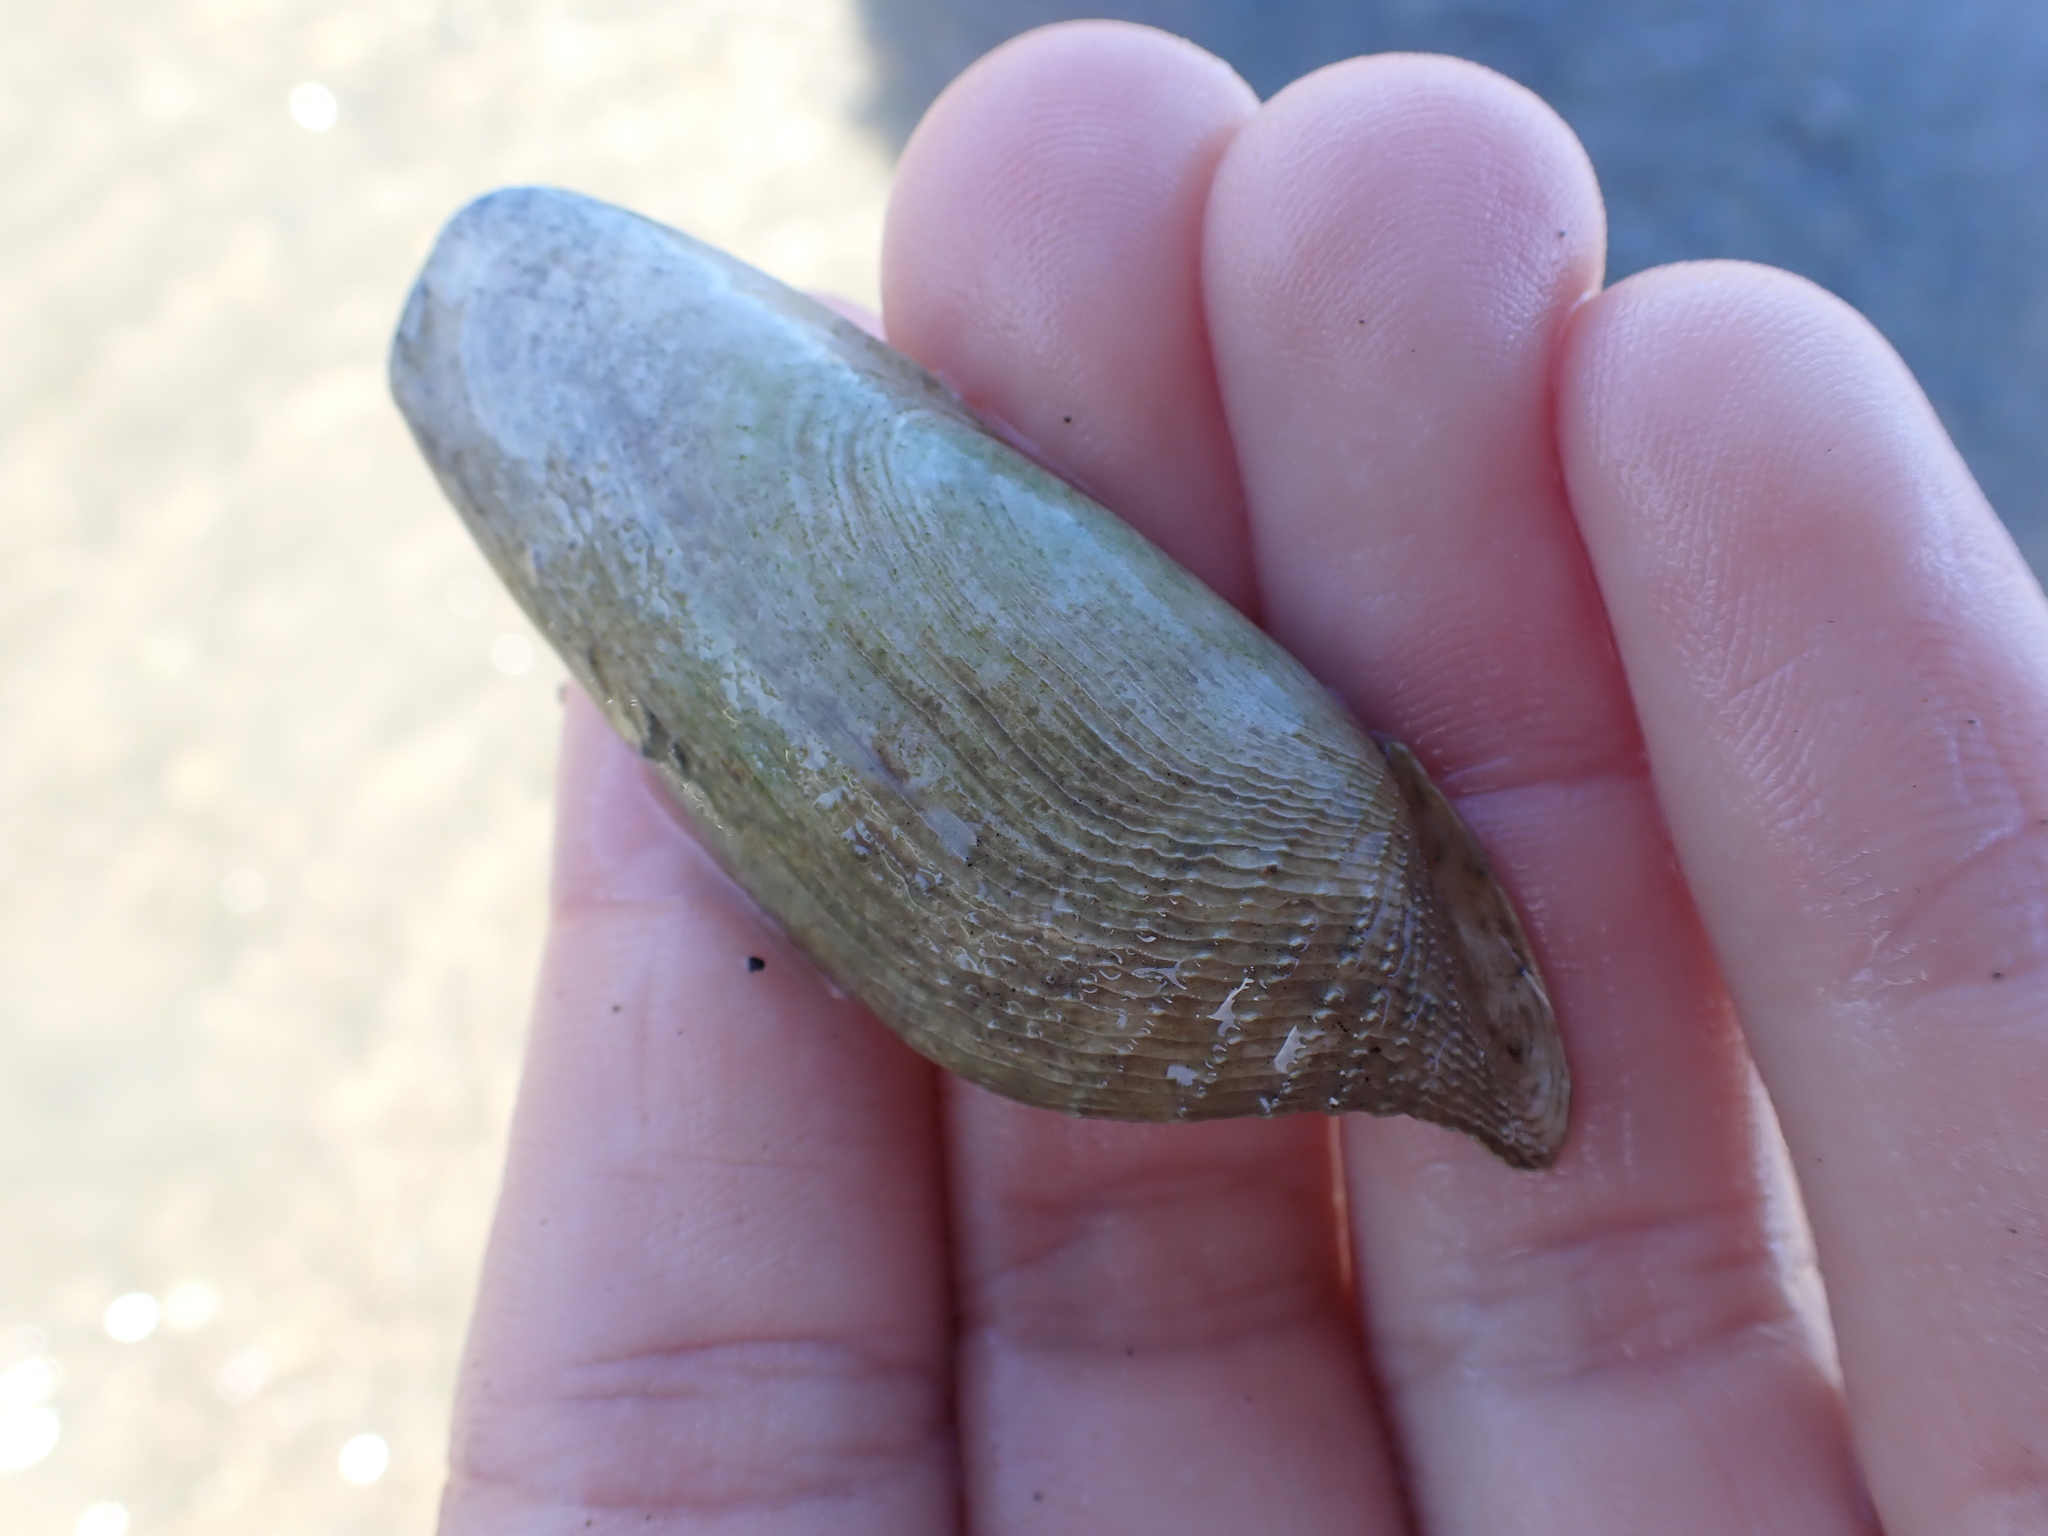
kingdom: Animalia
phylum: Mollusca
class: Bivalvia
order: Myida
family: Pholadidae
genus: Barnea
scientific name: Barnea similis
